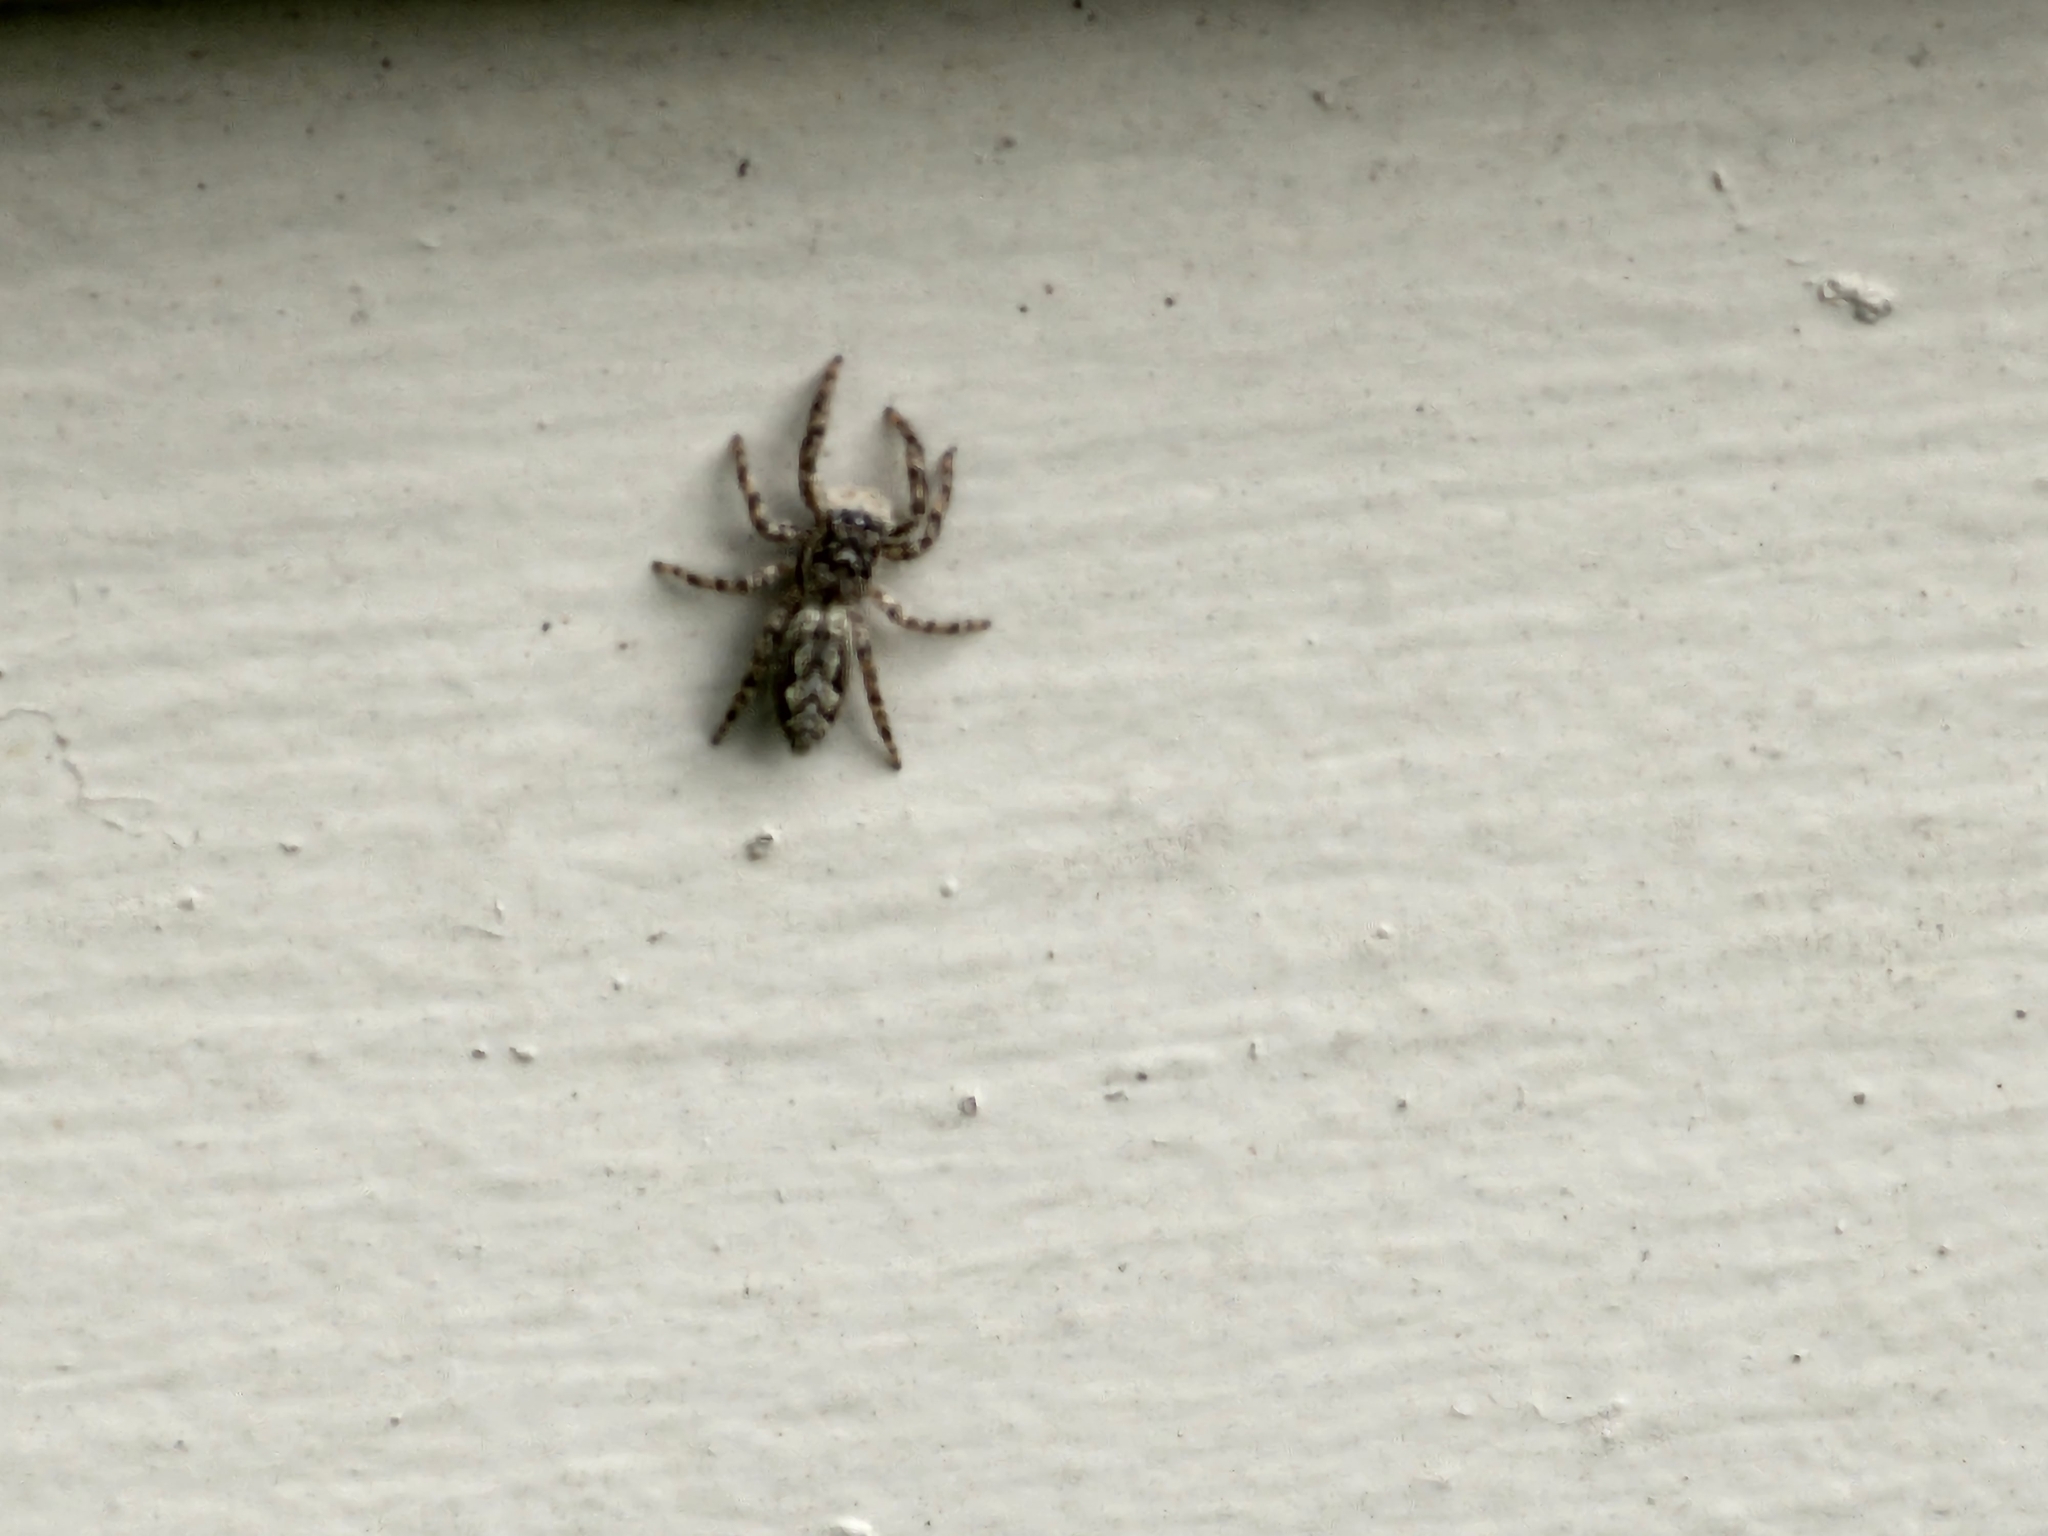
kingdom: Animalia
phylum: Arthropoda
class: Arachnida
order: Araneae
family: Salticidae
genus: Platycryptus
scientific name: Platycryptus undatus
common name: Tan jumping spider
